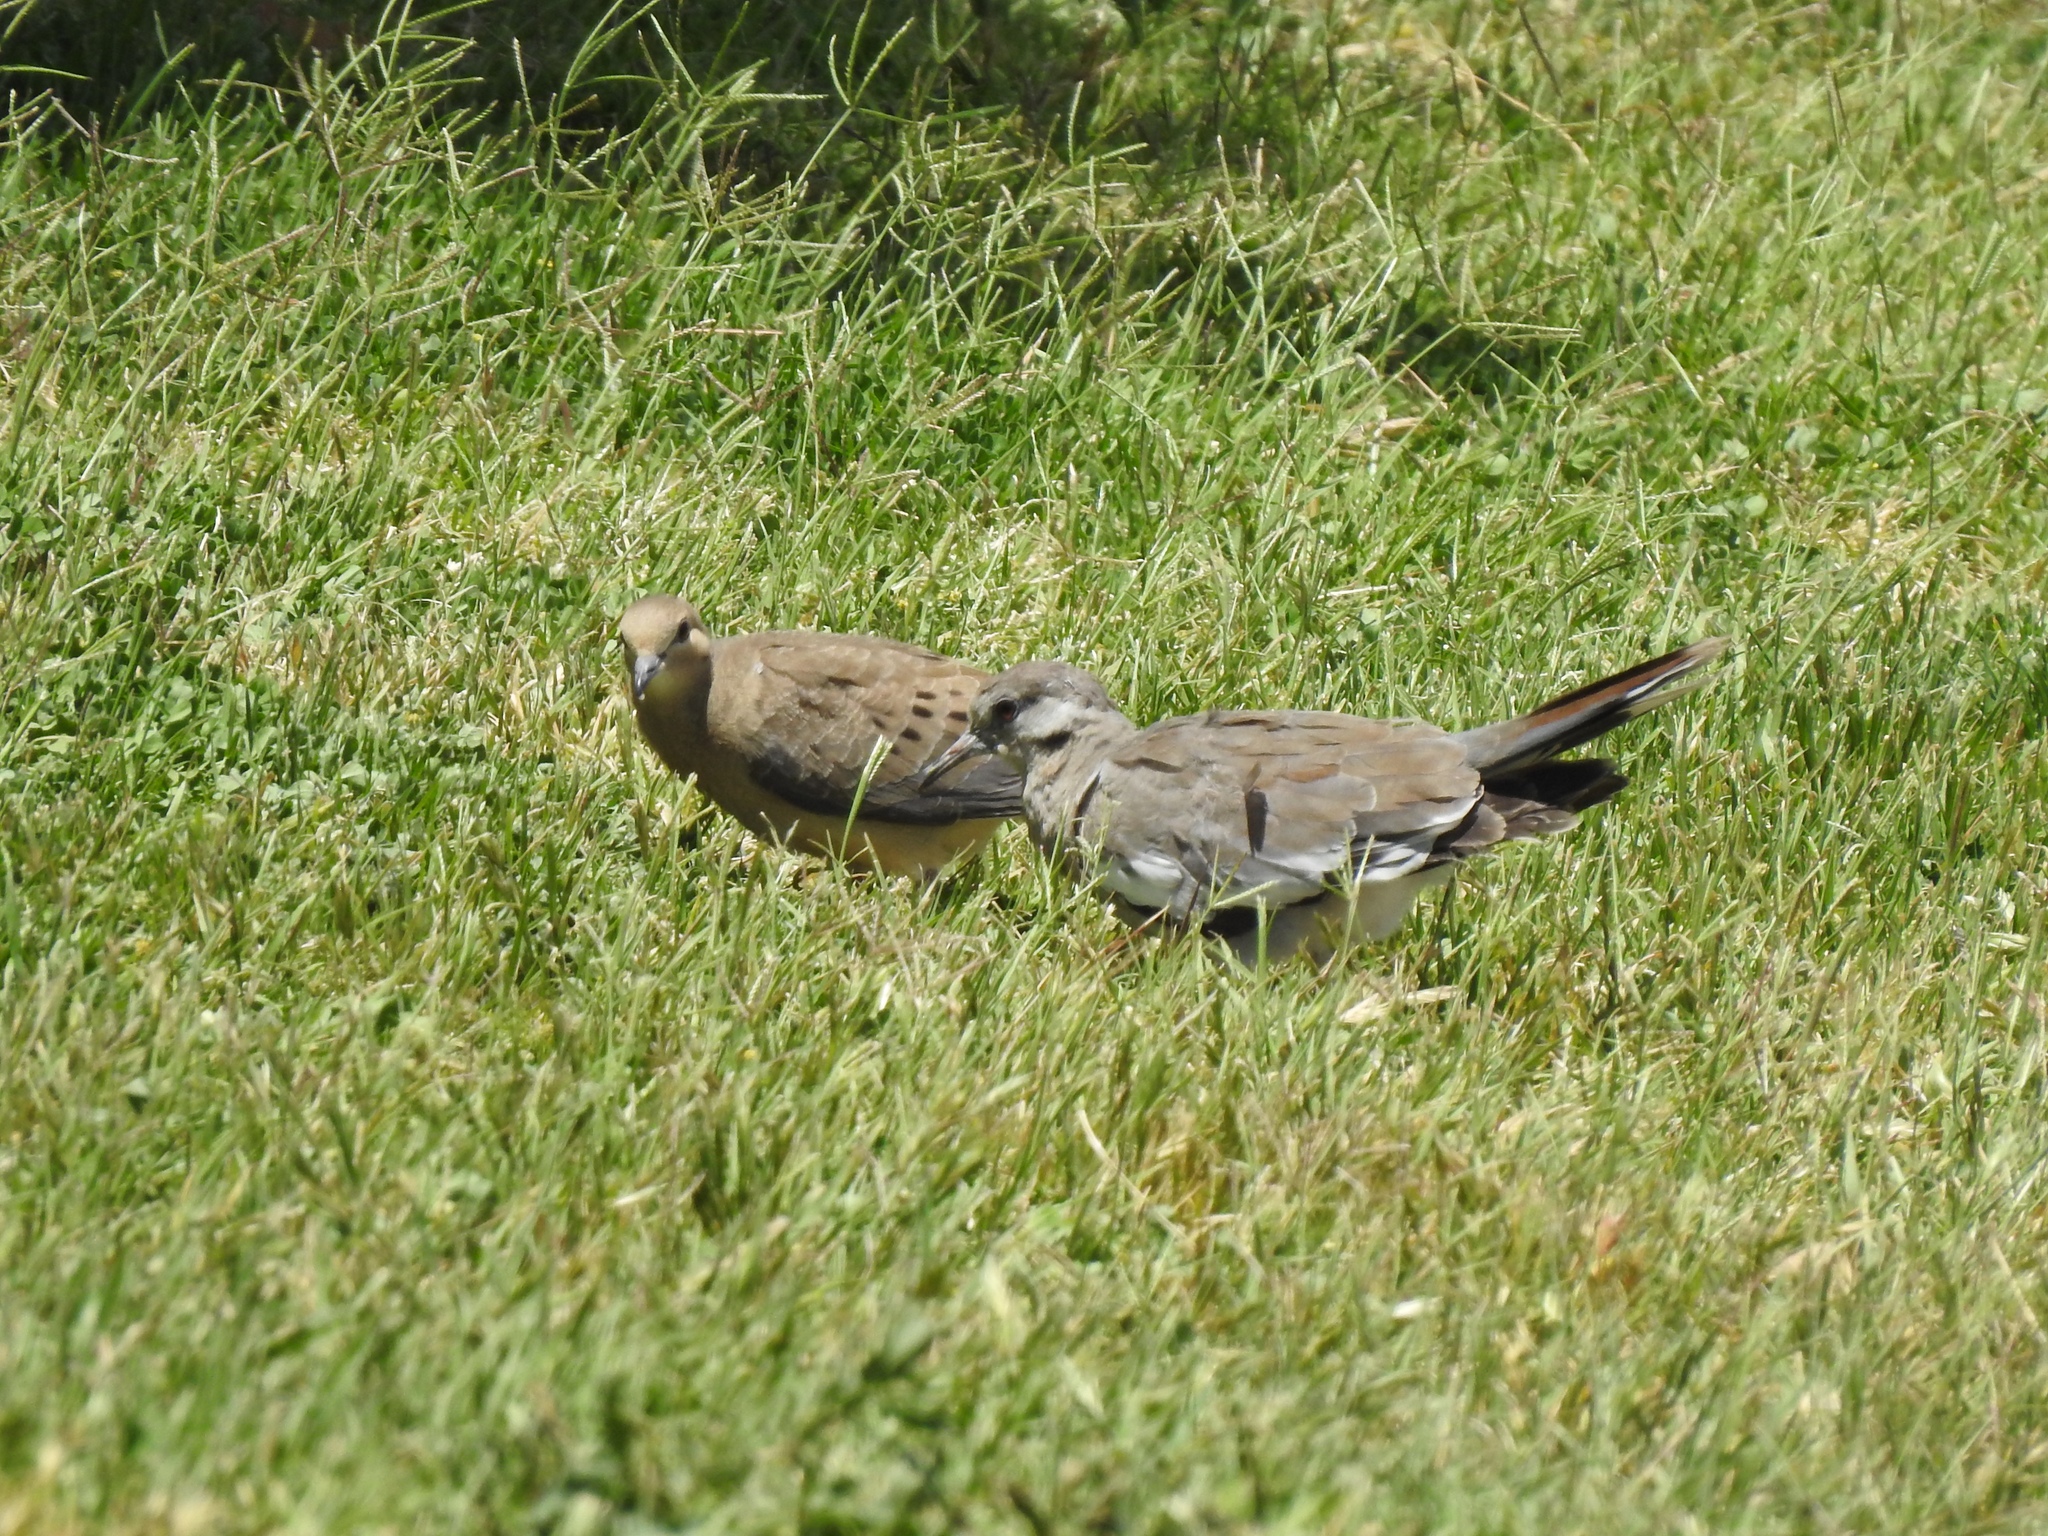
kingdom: Animalia
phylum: Chordata
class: Aves
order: Columbiformes
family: Columbidae
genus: Zenaida
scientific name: Zenaida macroura
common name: Mourning dove
